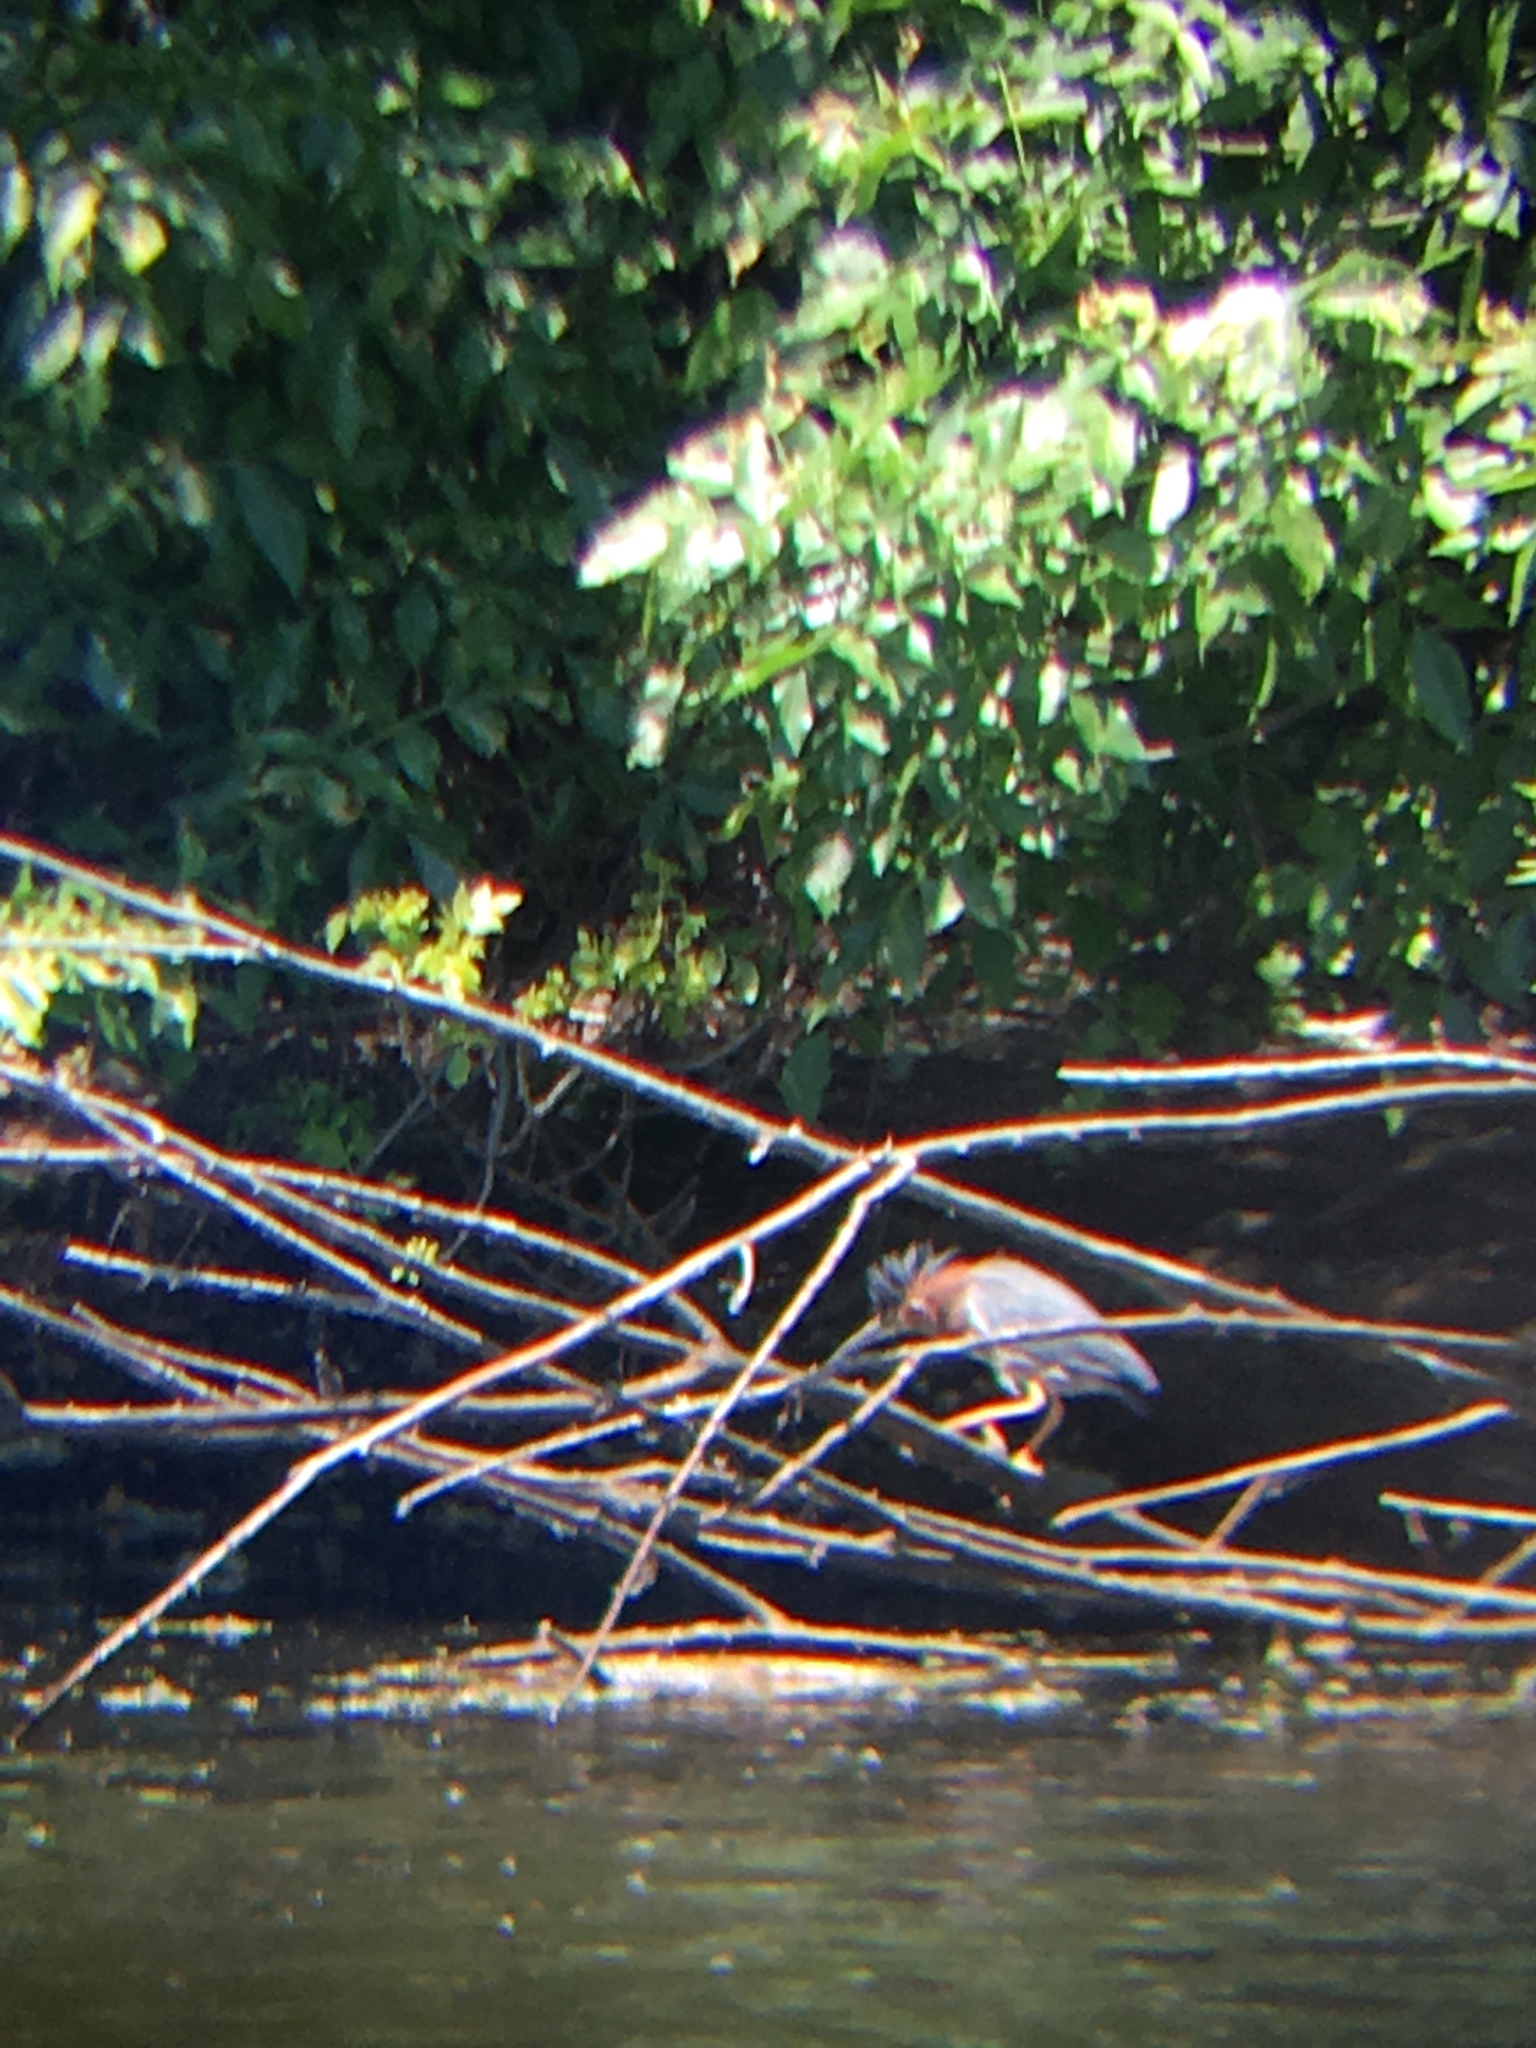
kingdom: Animalia
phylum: Chordata
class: Aves
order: Pelecaniformes
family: Ardeidae
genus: Butorides
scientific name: Butorides virescens
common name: Green heron
